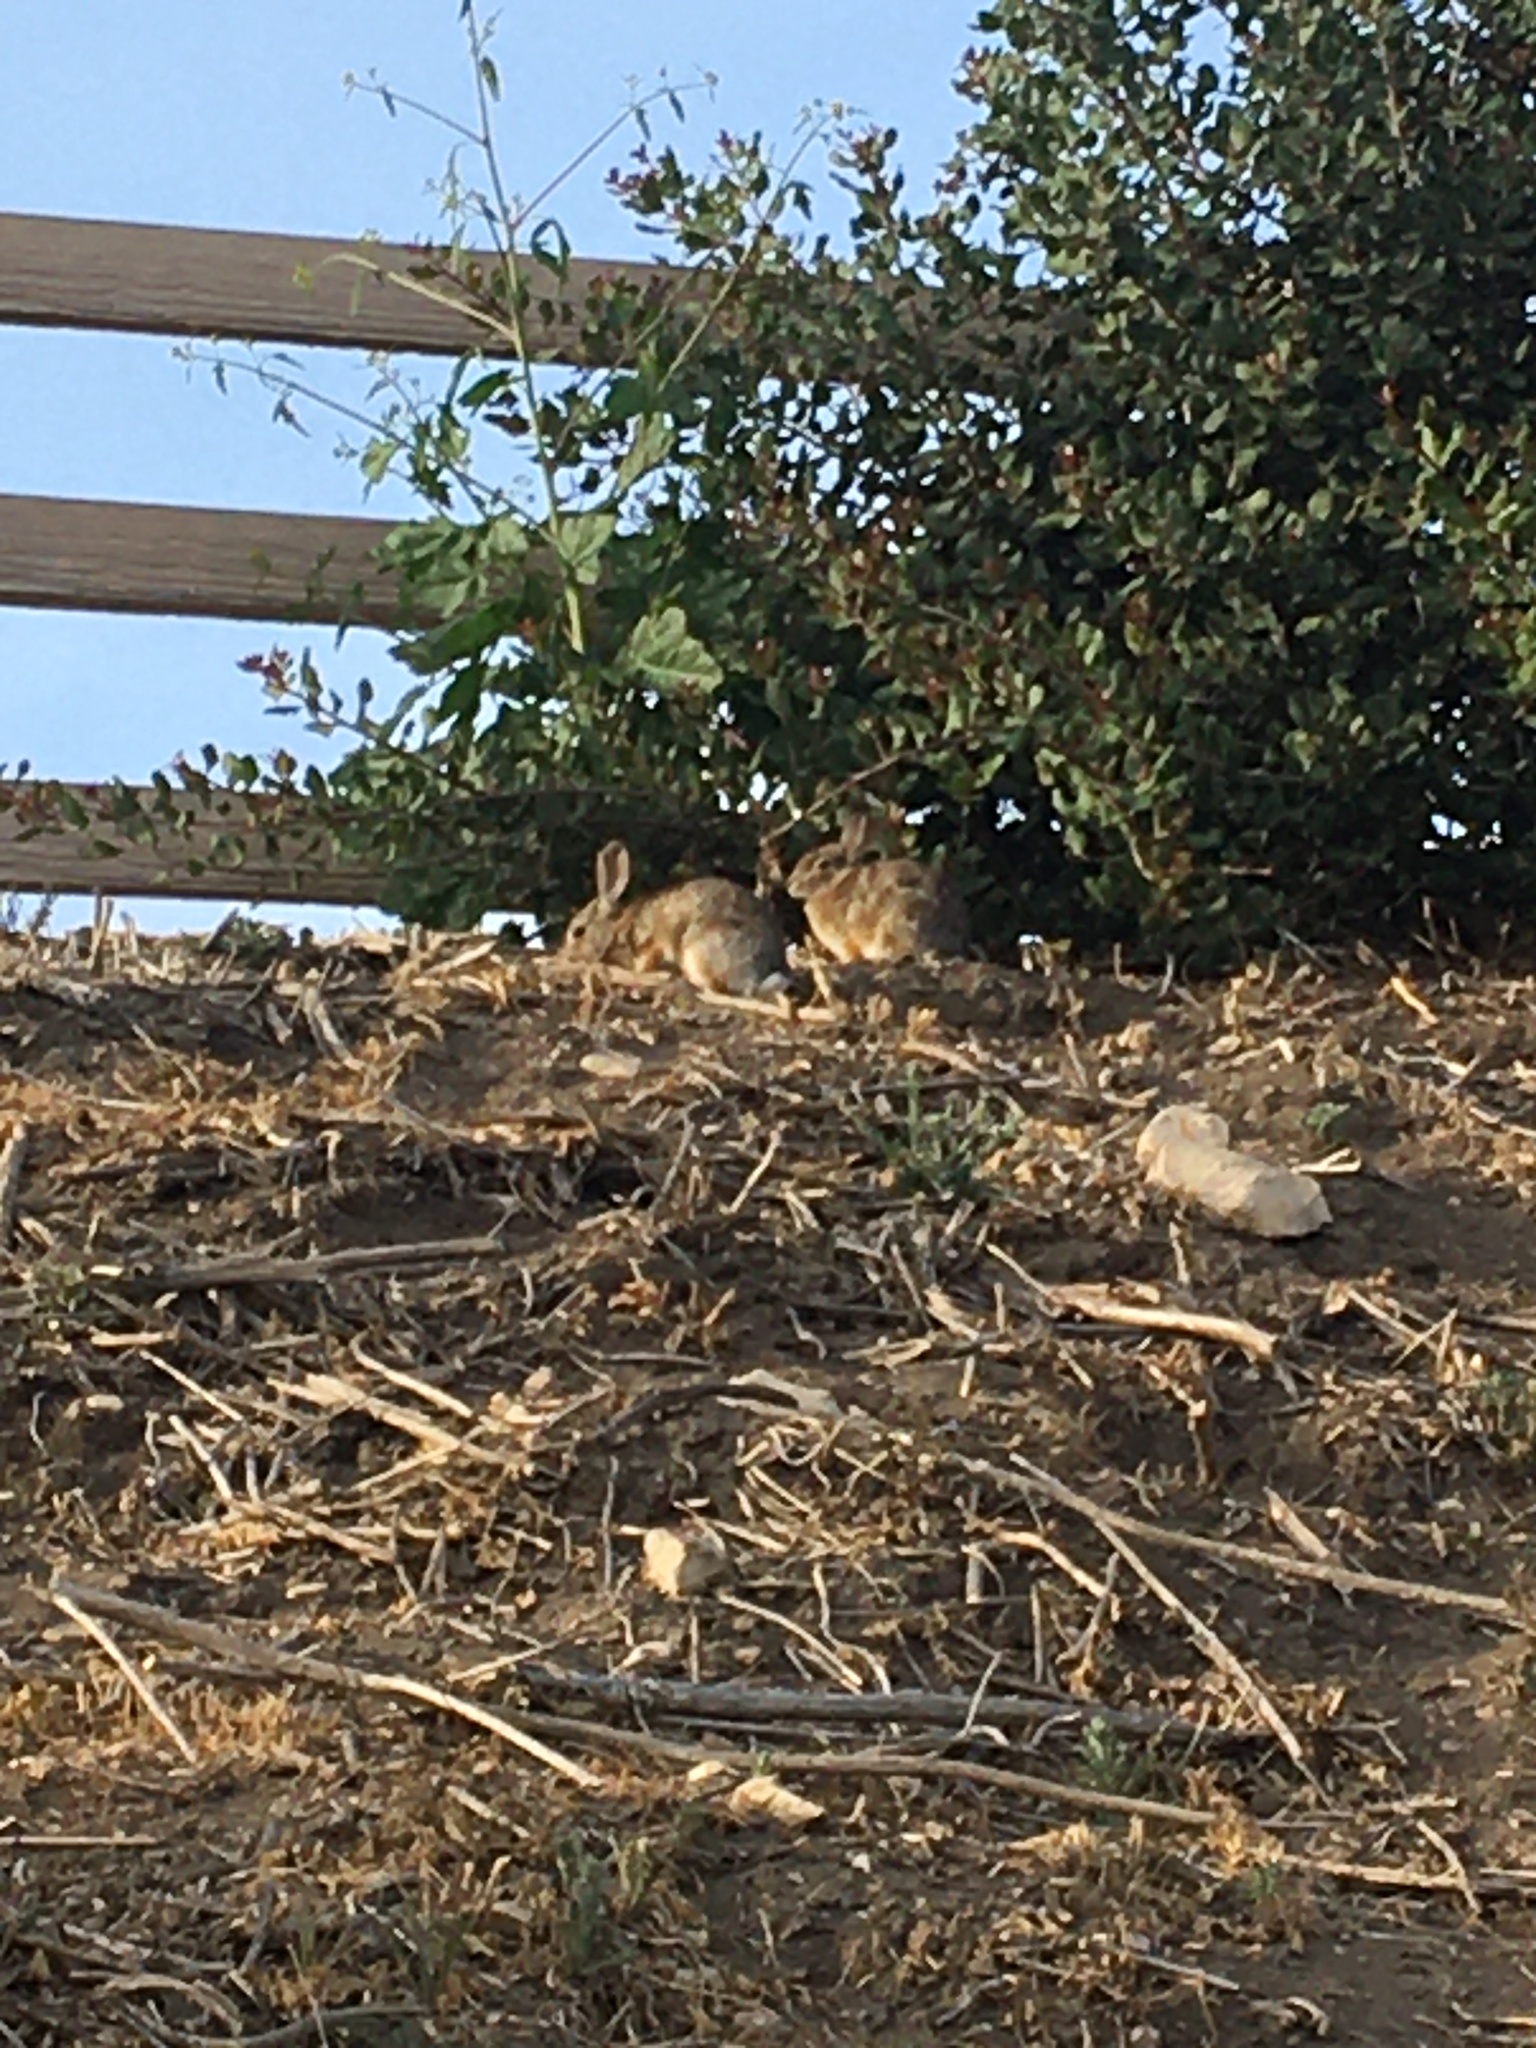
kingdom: Animalia
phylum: Chordata
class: Mammalia
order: Lagomorpha
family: Leporidae
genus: Sylvilagus
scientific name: Sylvilagus audubonii
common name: Desert cottontail
